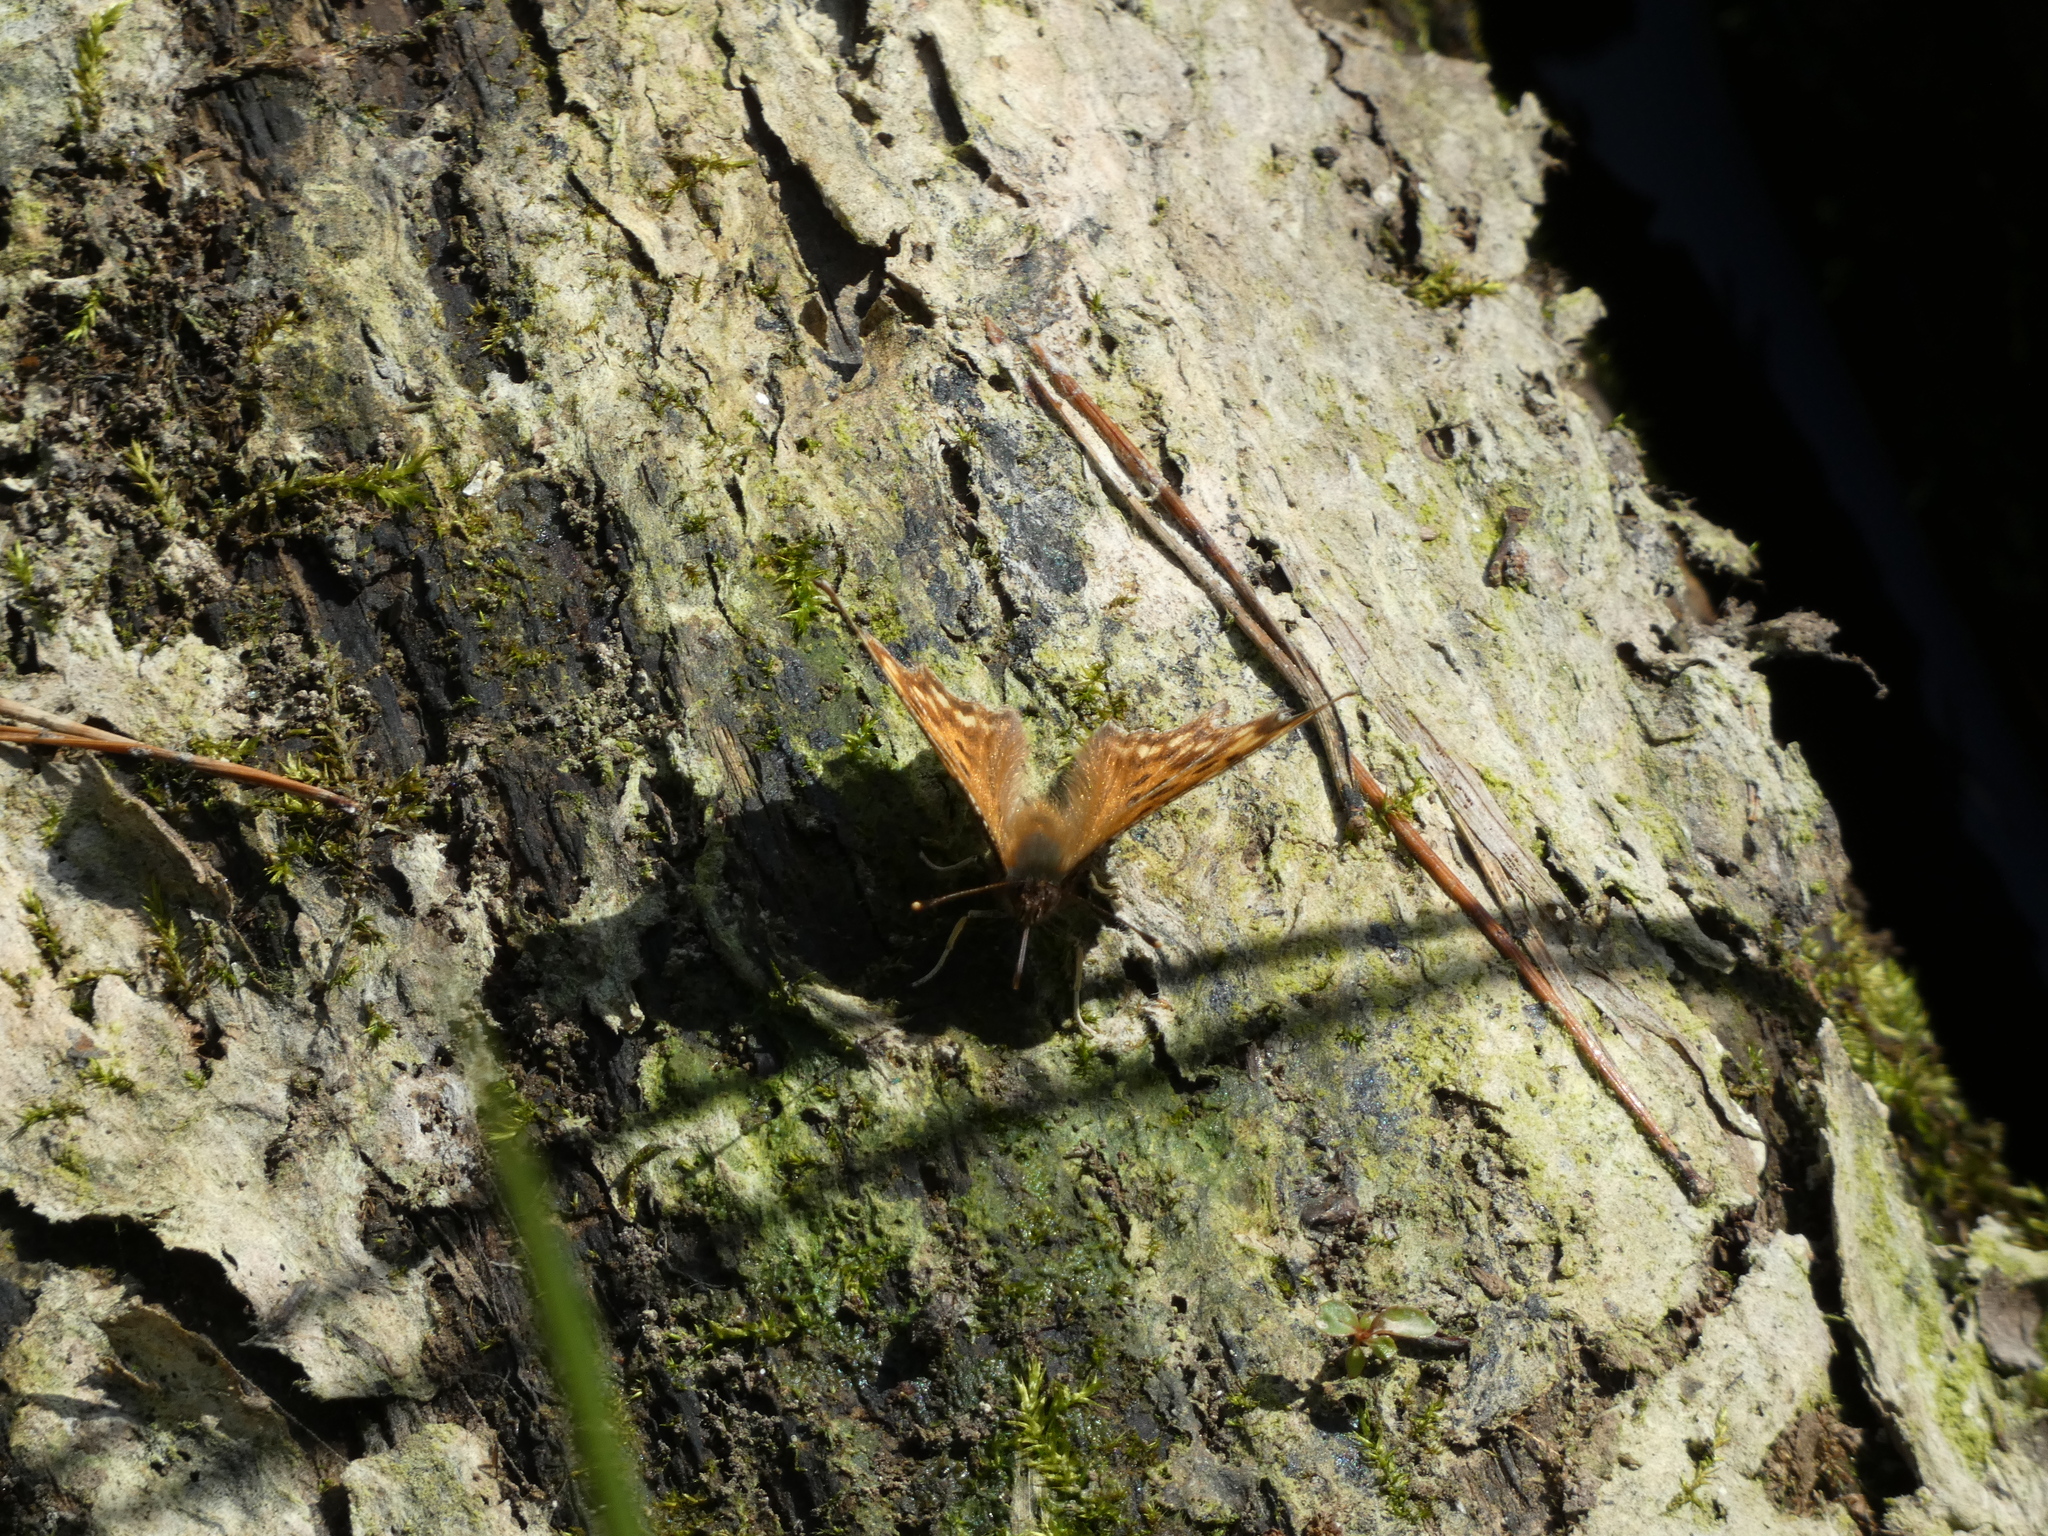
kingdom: Animalia
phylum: Arthropoda
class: Insecta
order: Lepidoptera
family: Nymphalidae
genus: Polygonia
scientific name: Polygonia c-album
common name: Comma
